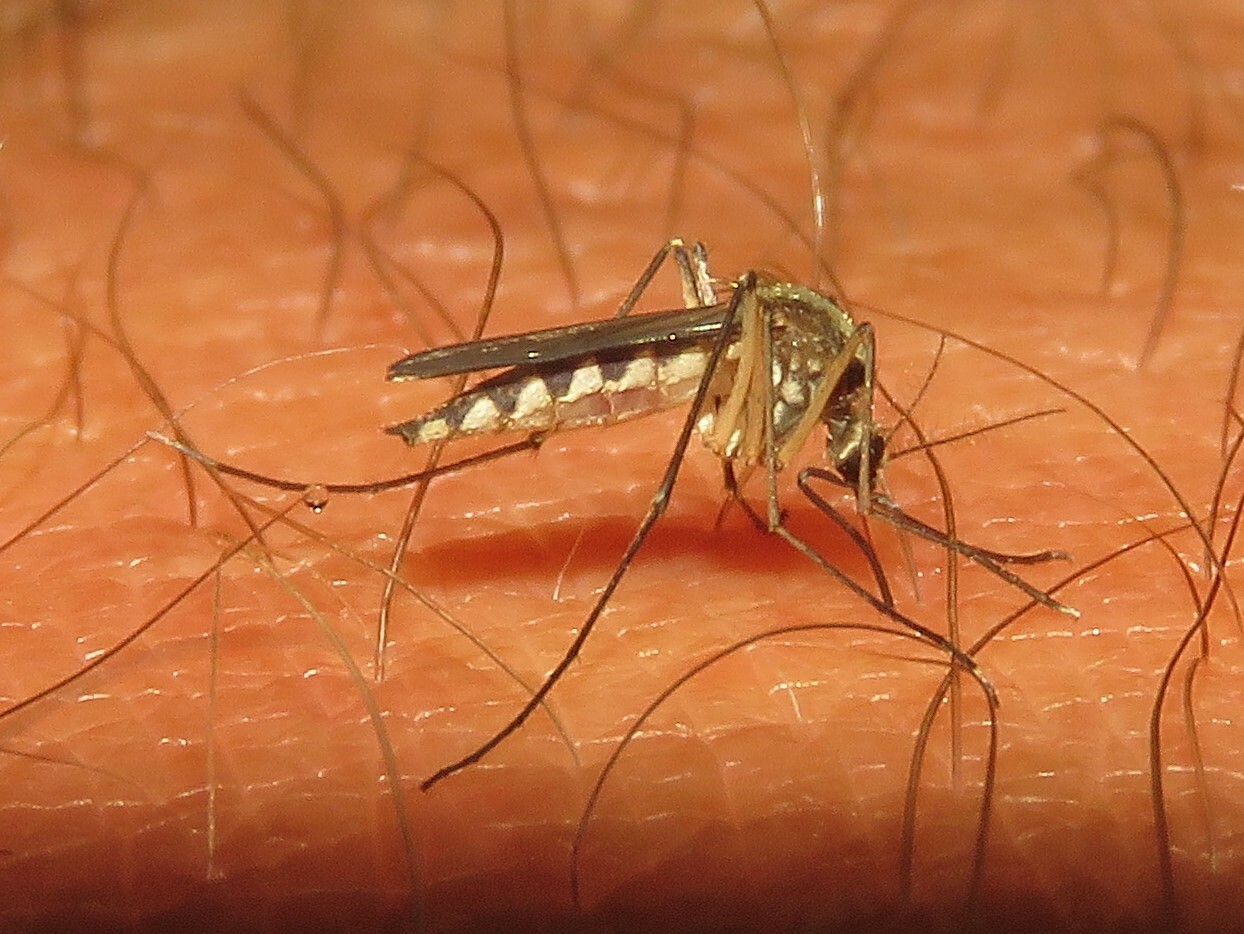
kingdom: Animalia
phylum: Arthropoda
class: Insecta
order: Diptera
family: Culicidae
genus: Aedes
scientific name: Aedes trivittatus
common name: Plains floodwater mosquito
